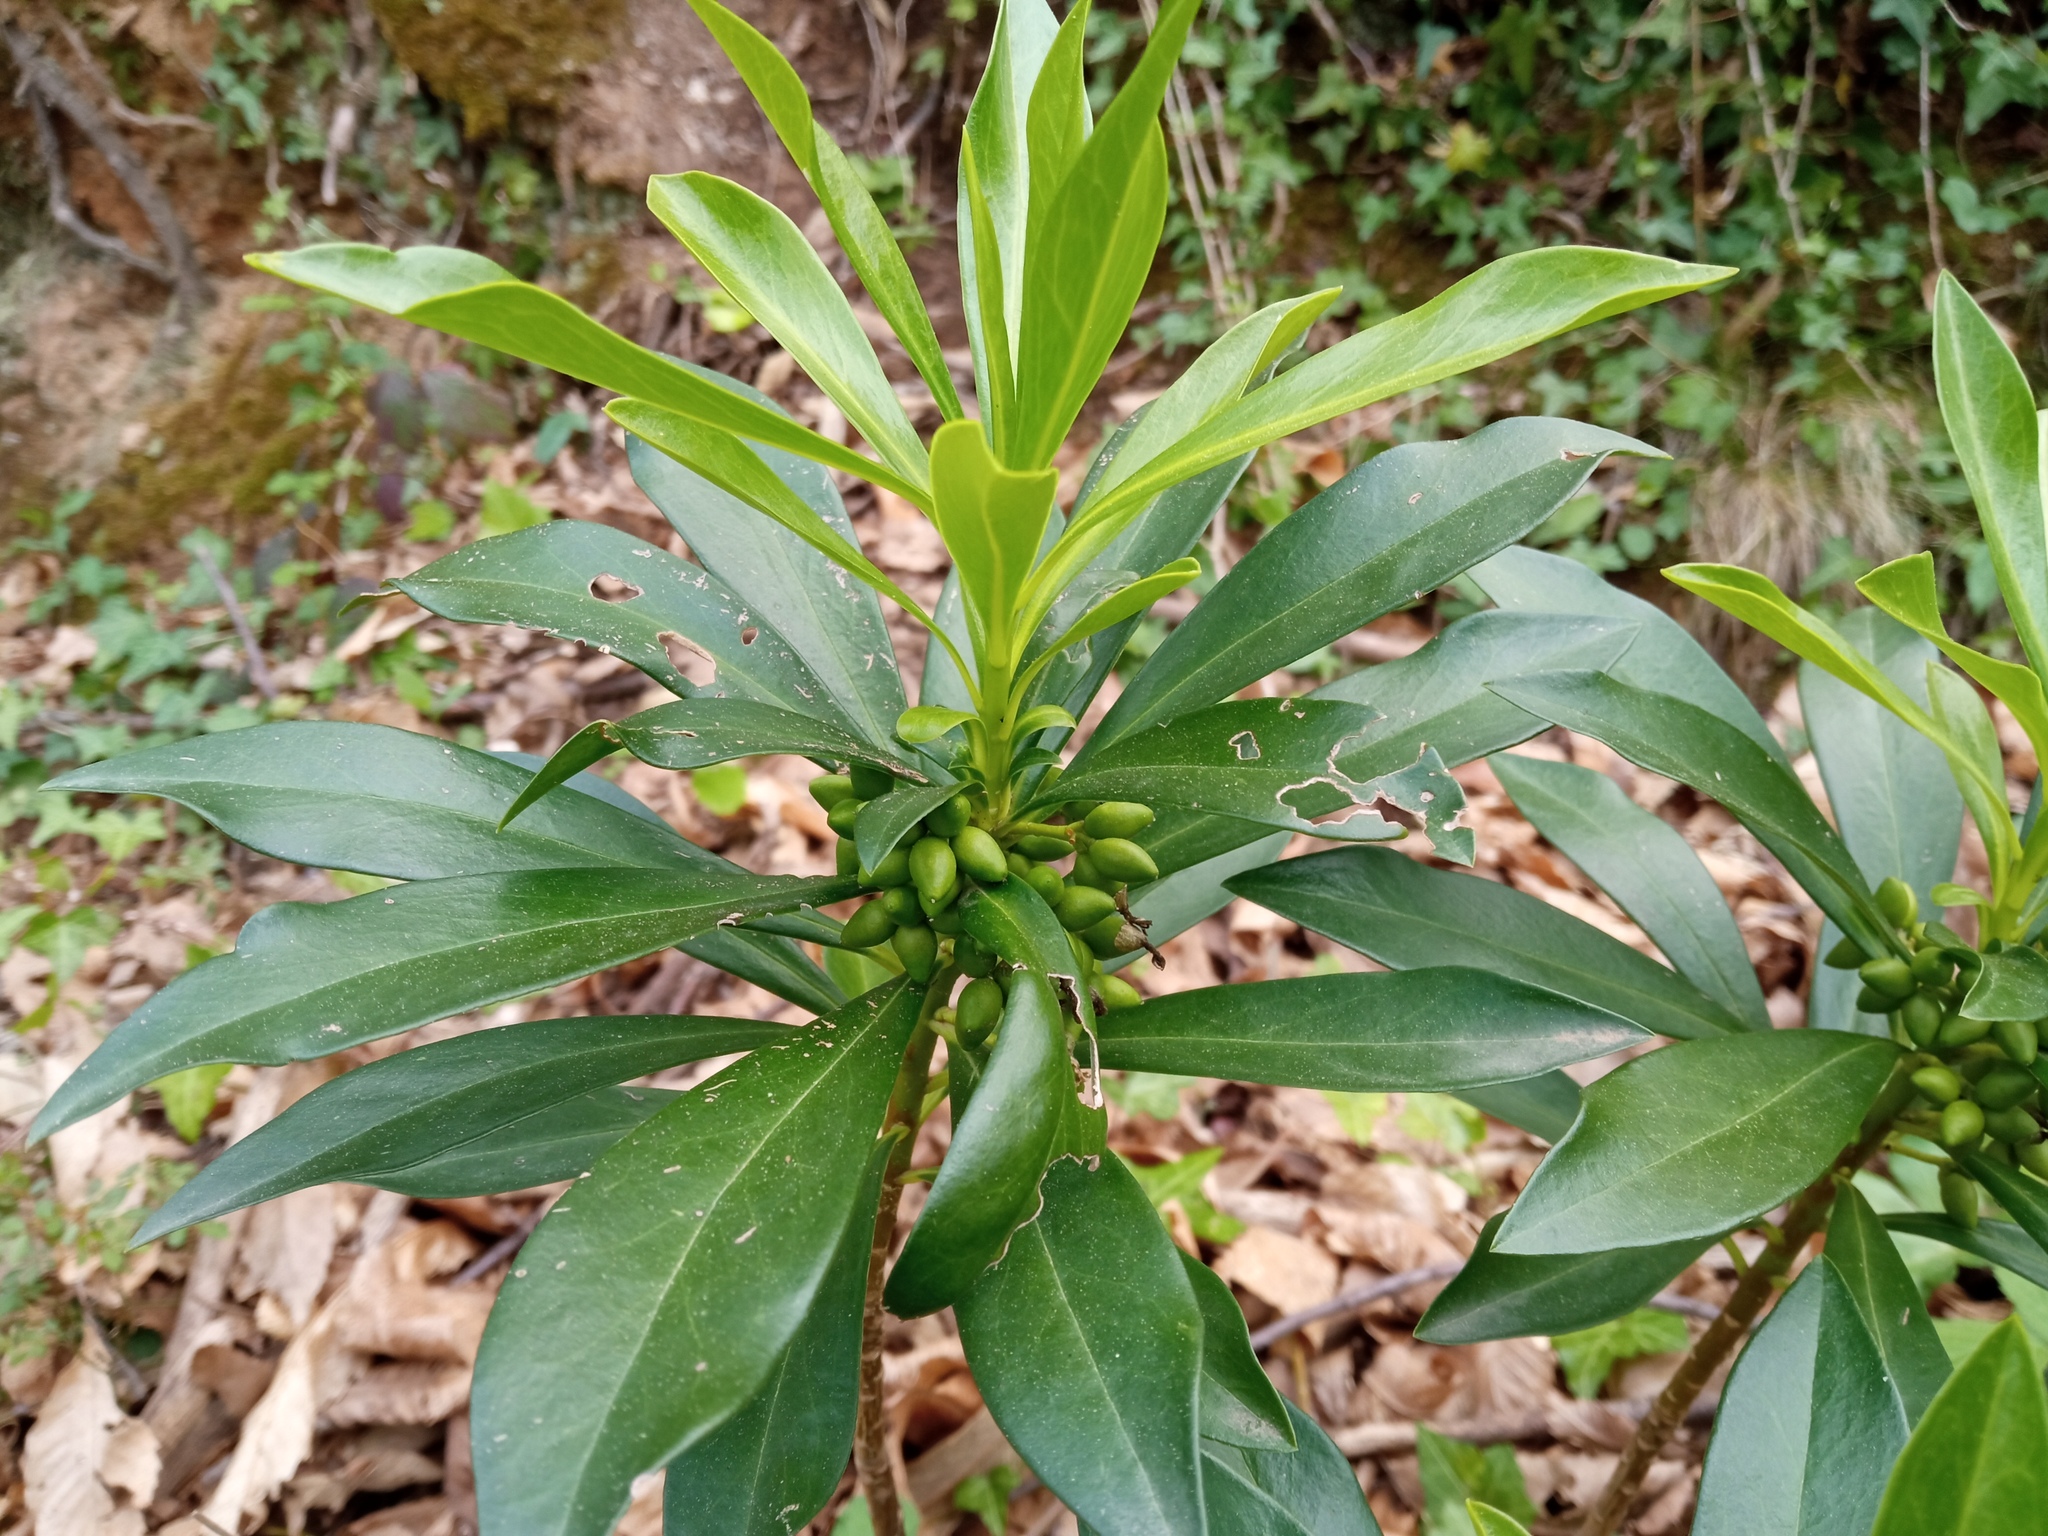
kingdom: Plantae
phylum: Tracheophyta
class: Magnoliopsida
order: Malvales
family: Thymelaeaceae
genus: Daphne
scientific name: Daphne laureola
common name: Spurge-laurel
